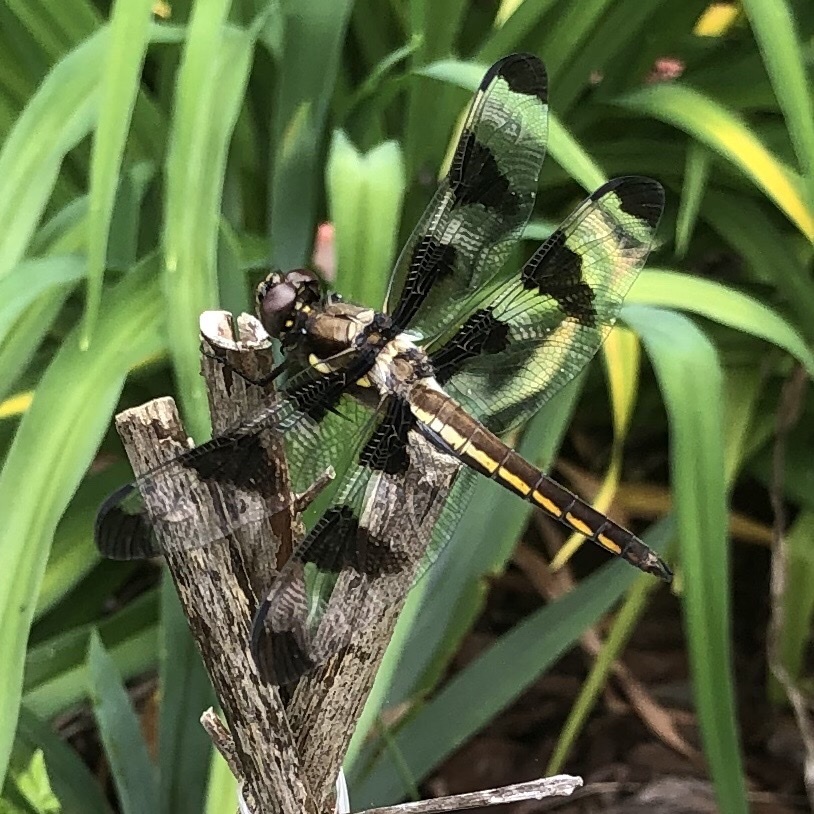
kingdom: Animalia
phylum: Arthropoda
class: Insecta
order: Odonata
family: Libellulidae
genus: Libellula
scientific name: Libellula pulchella
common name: Twelve-spotted skimmer
